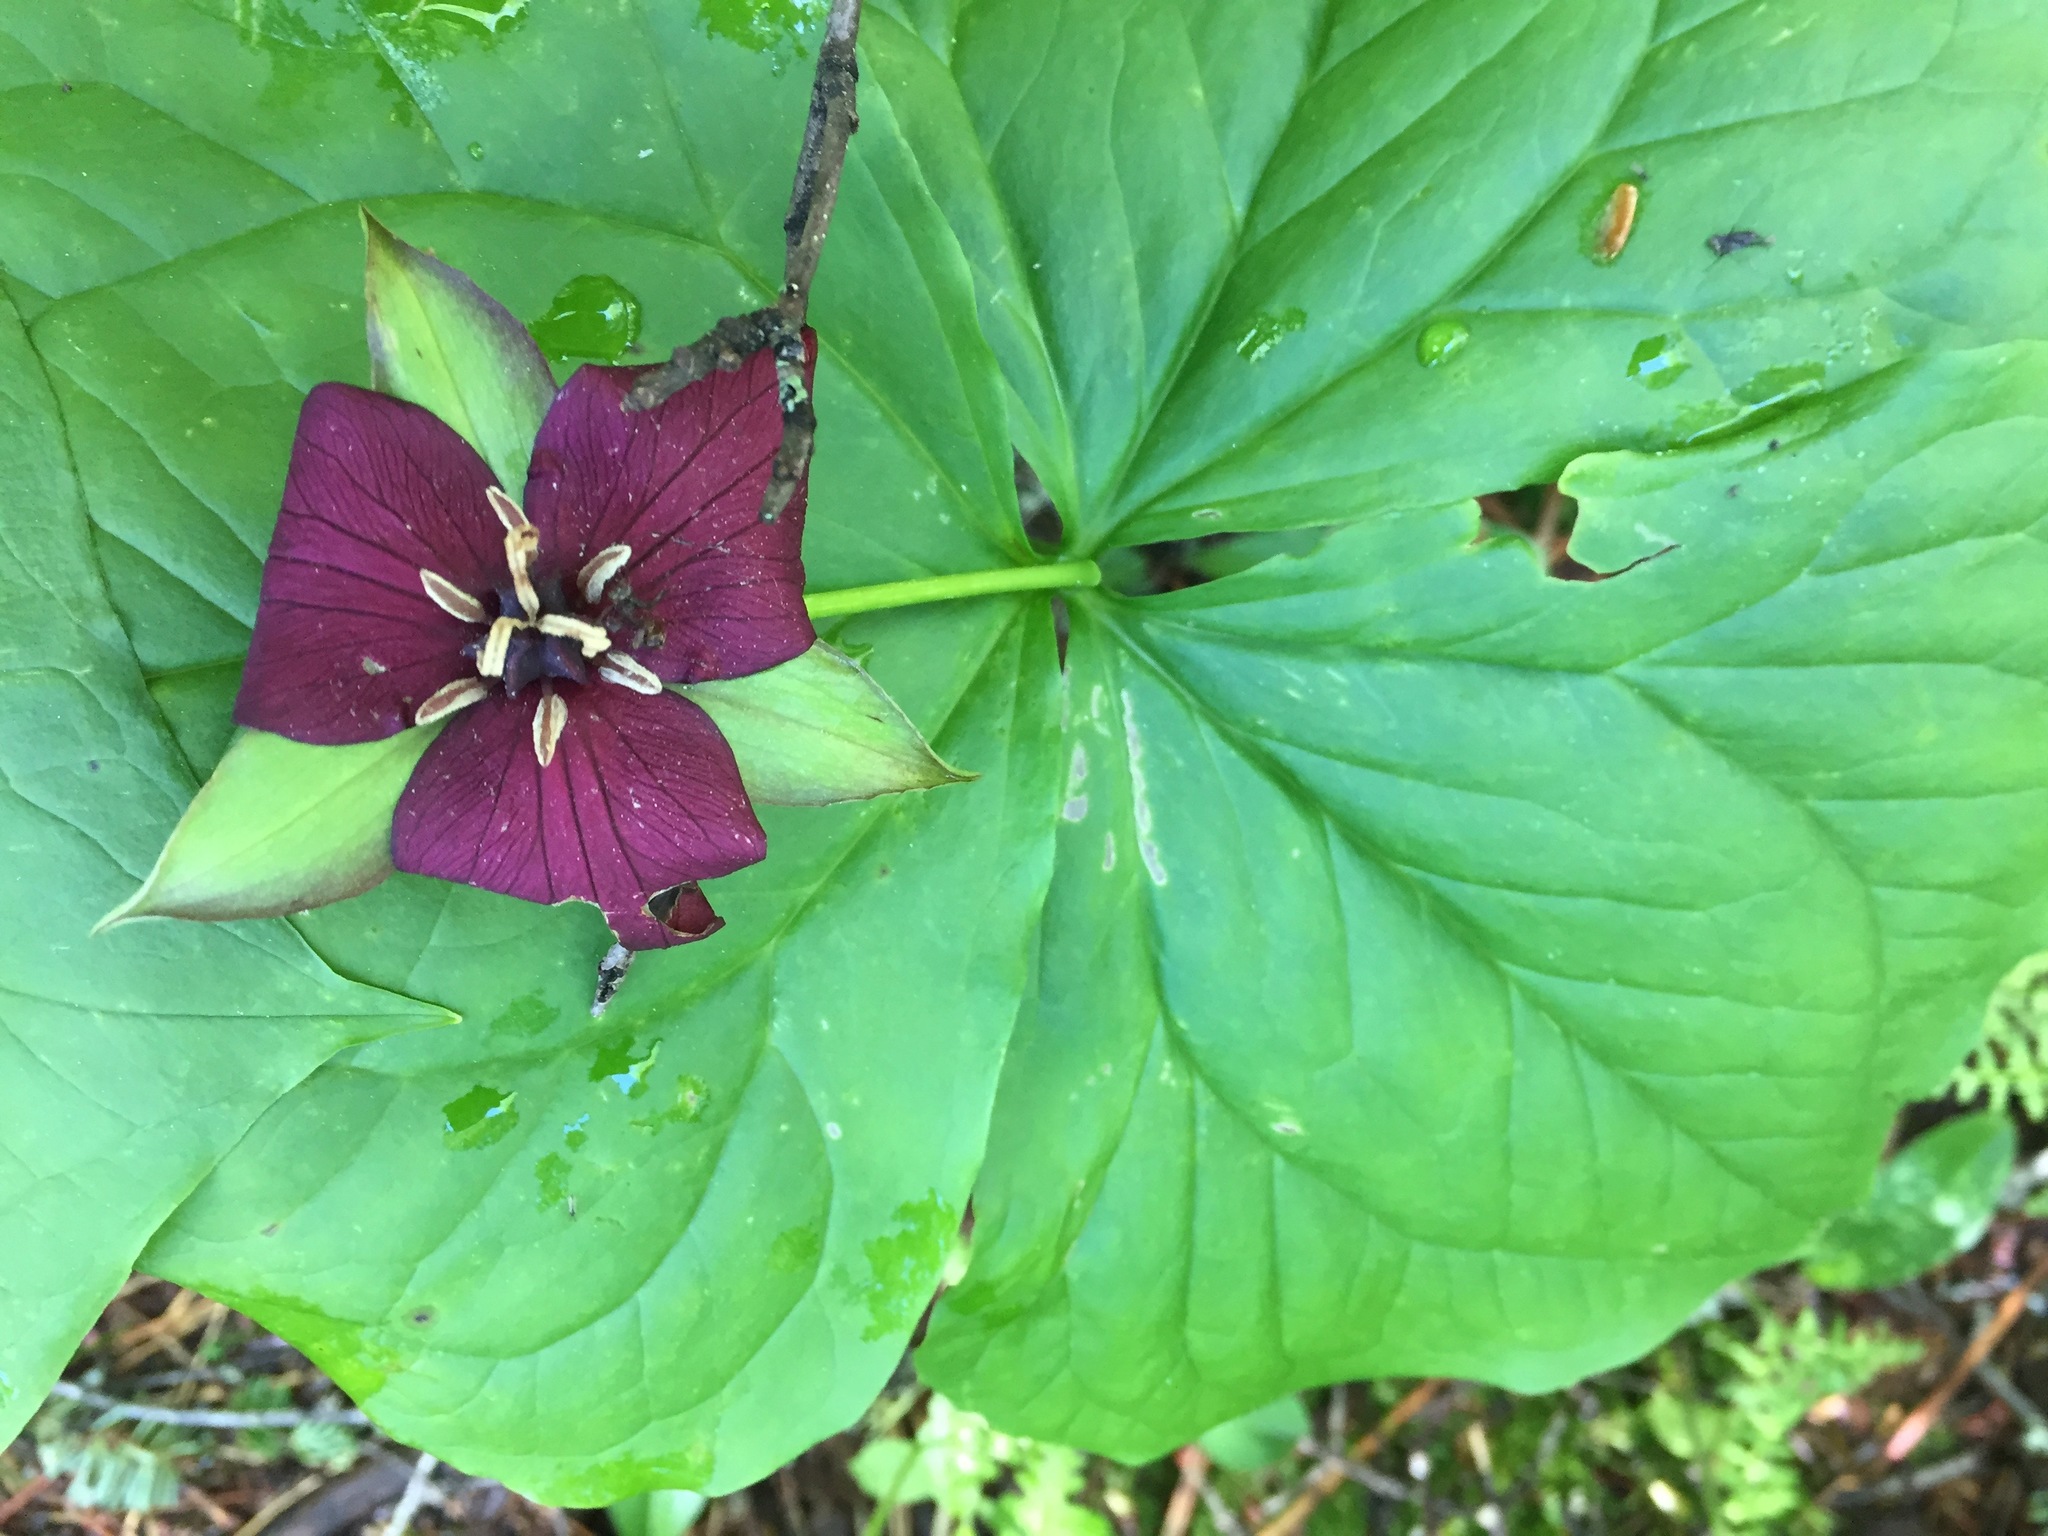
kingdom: Plantae
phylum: Tracheophyta
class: Liliopsida
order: Liliales
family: Melanthiaceae
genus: Trillium
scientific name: Trillium erectum
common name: Purple trillium
